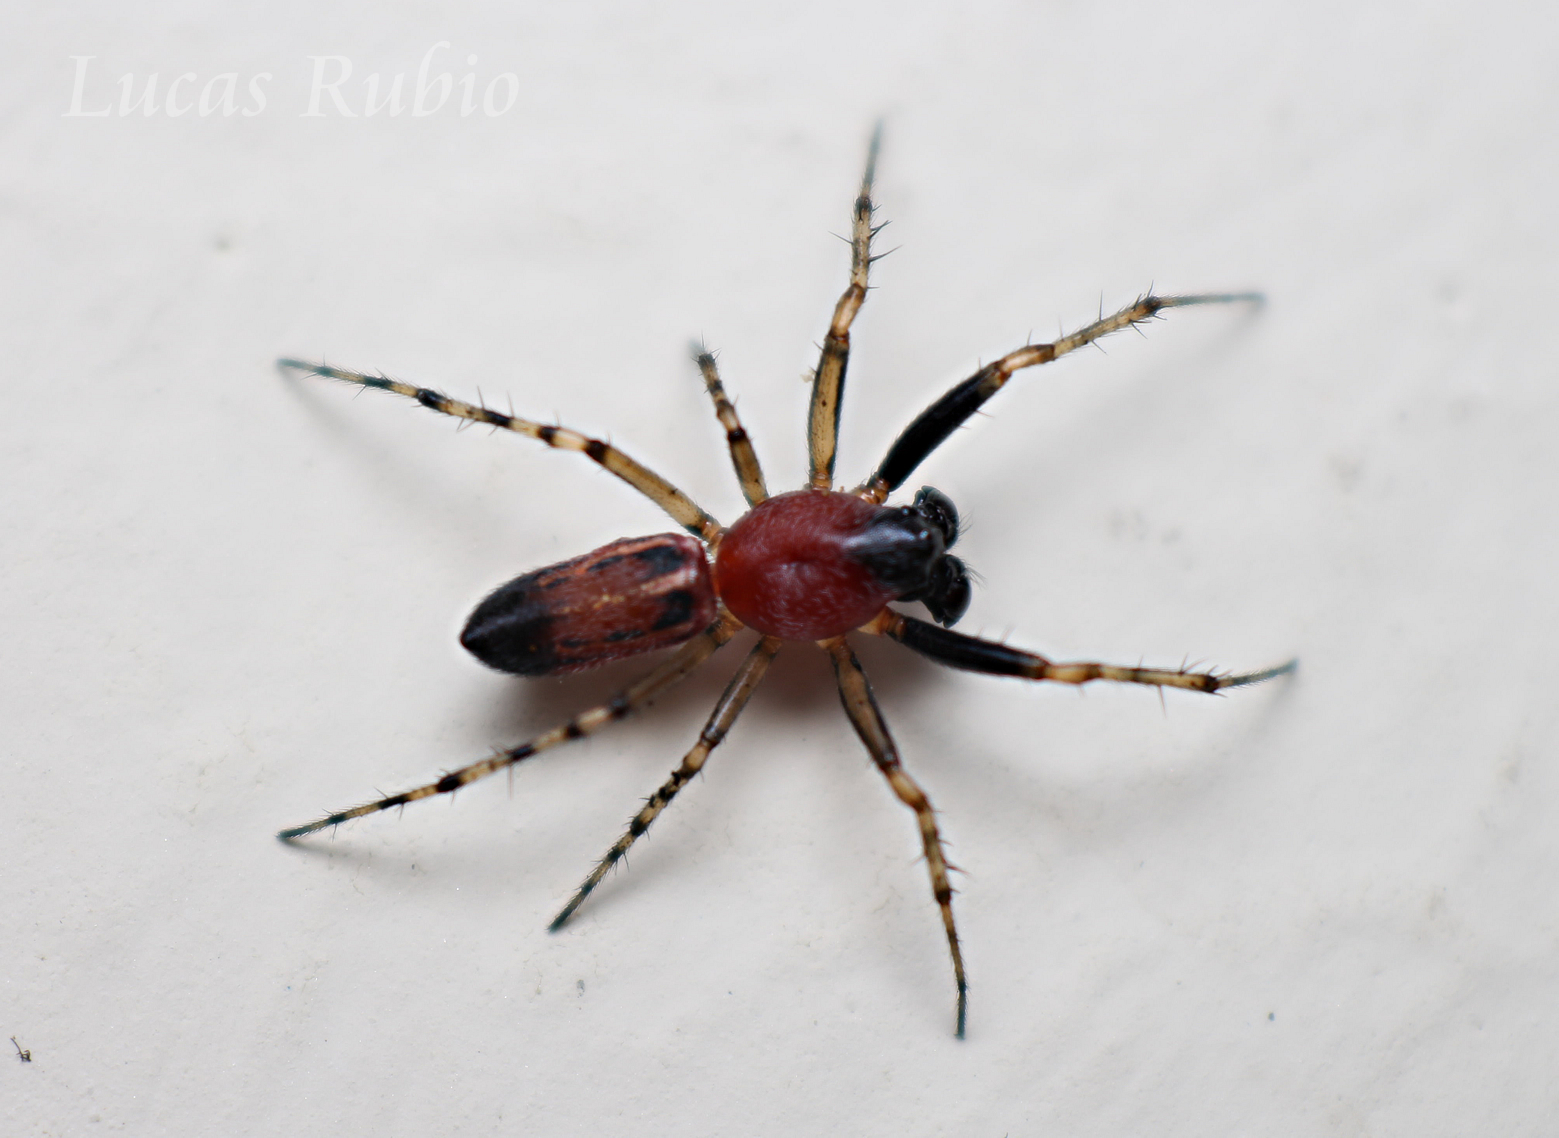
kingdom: Animalia
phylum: Arthropoda
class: Arachnida
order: Araneae
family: Araneidae
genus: Alpaida
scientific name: Alpaida leucogramma
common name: Orb weavers
